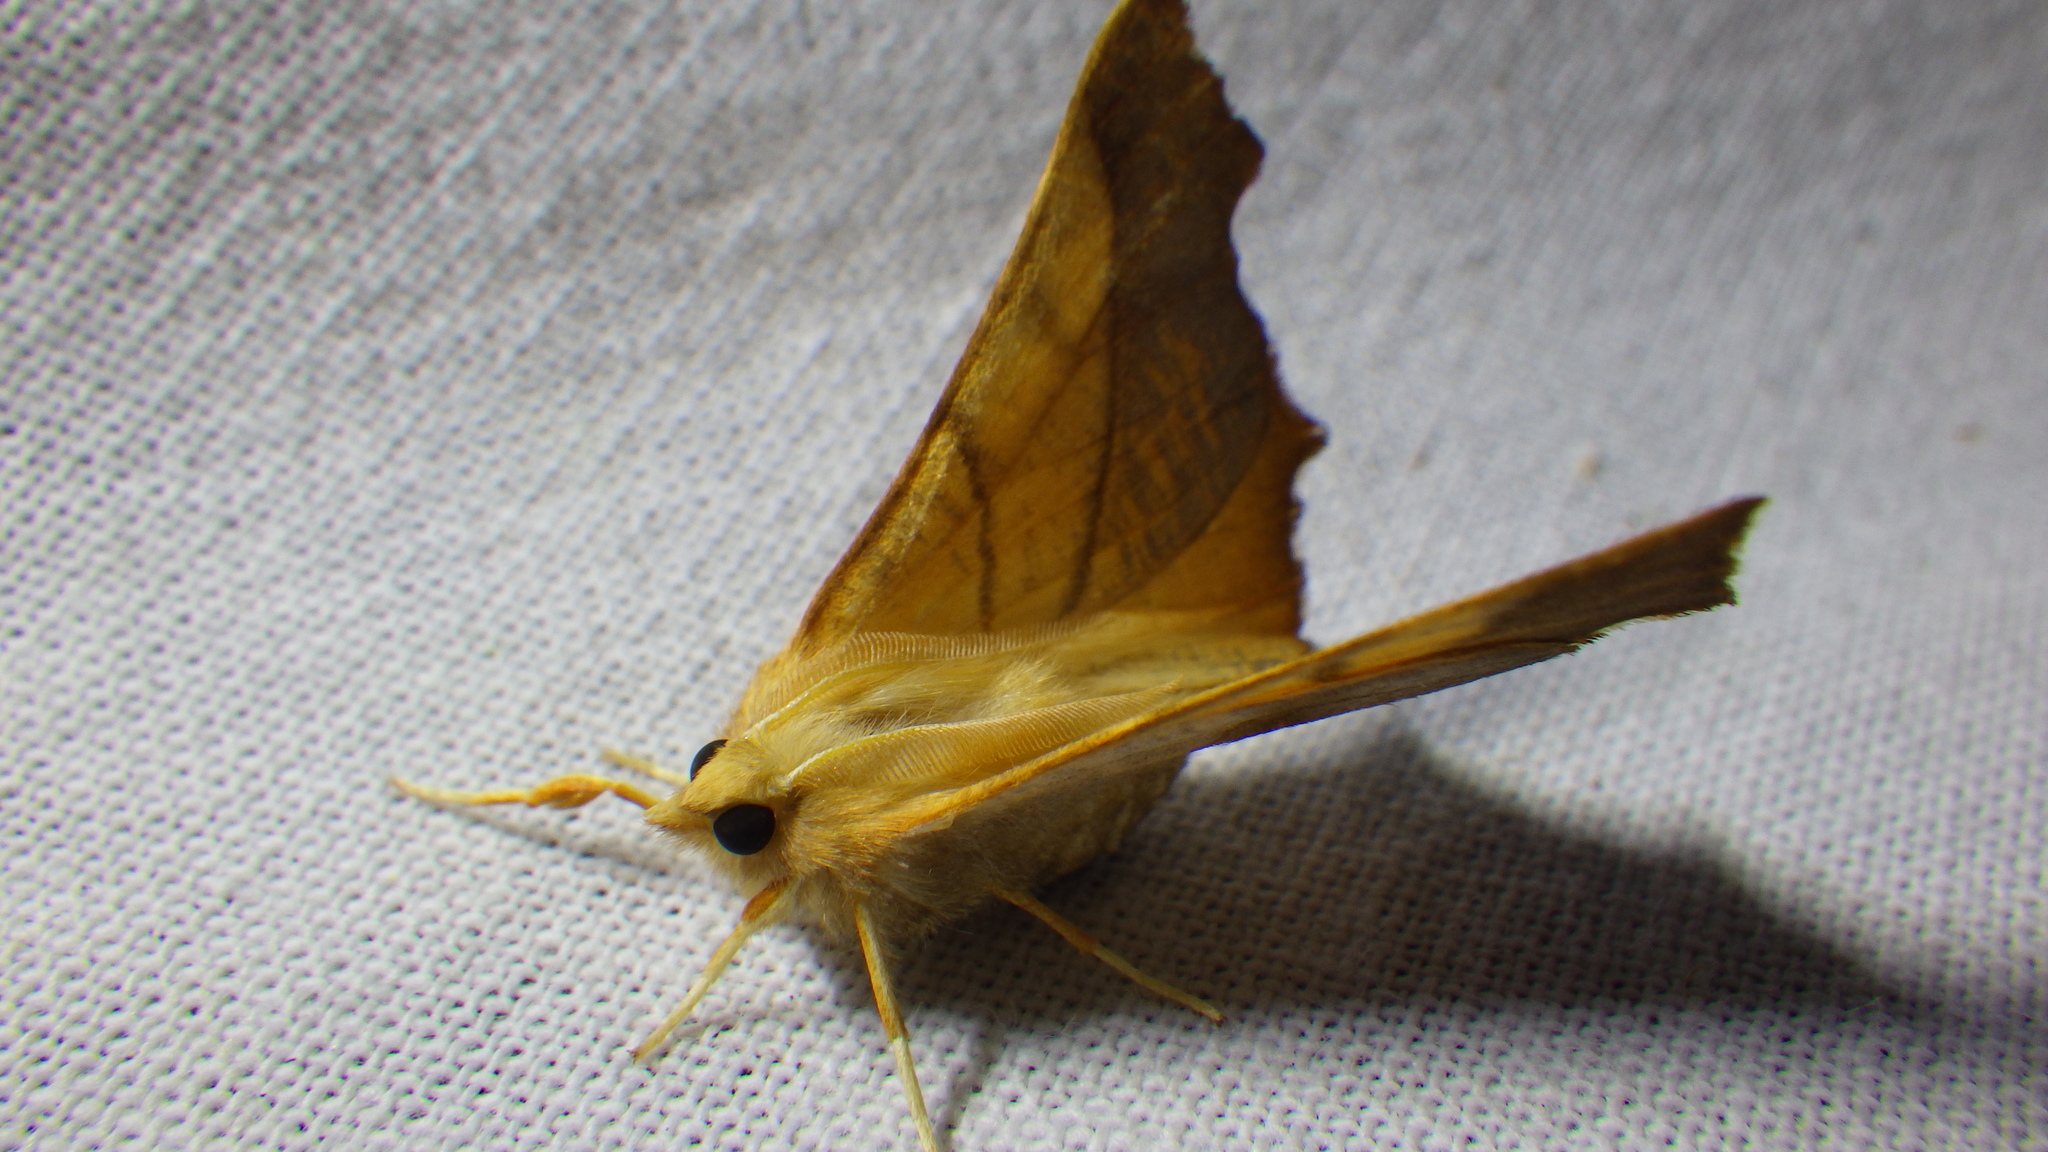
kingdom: Animalia
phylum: Arthropoda
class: Insecta
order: Lepidoptera
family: Geometridae
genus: Ennomos
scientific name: Ennomos fuscantaria
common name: Dusky thorn
